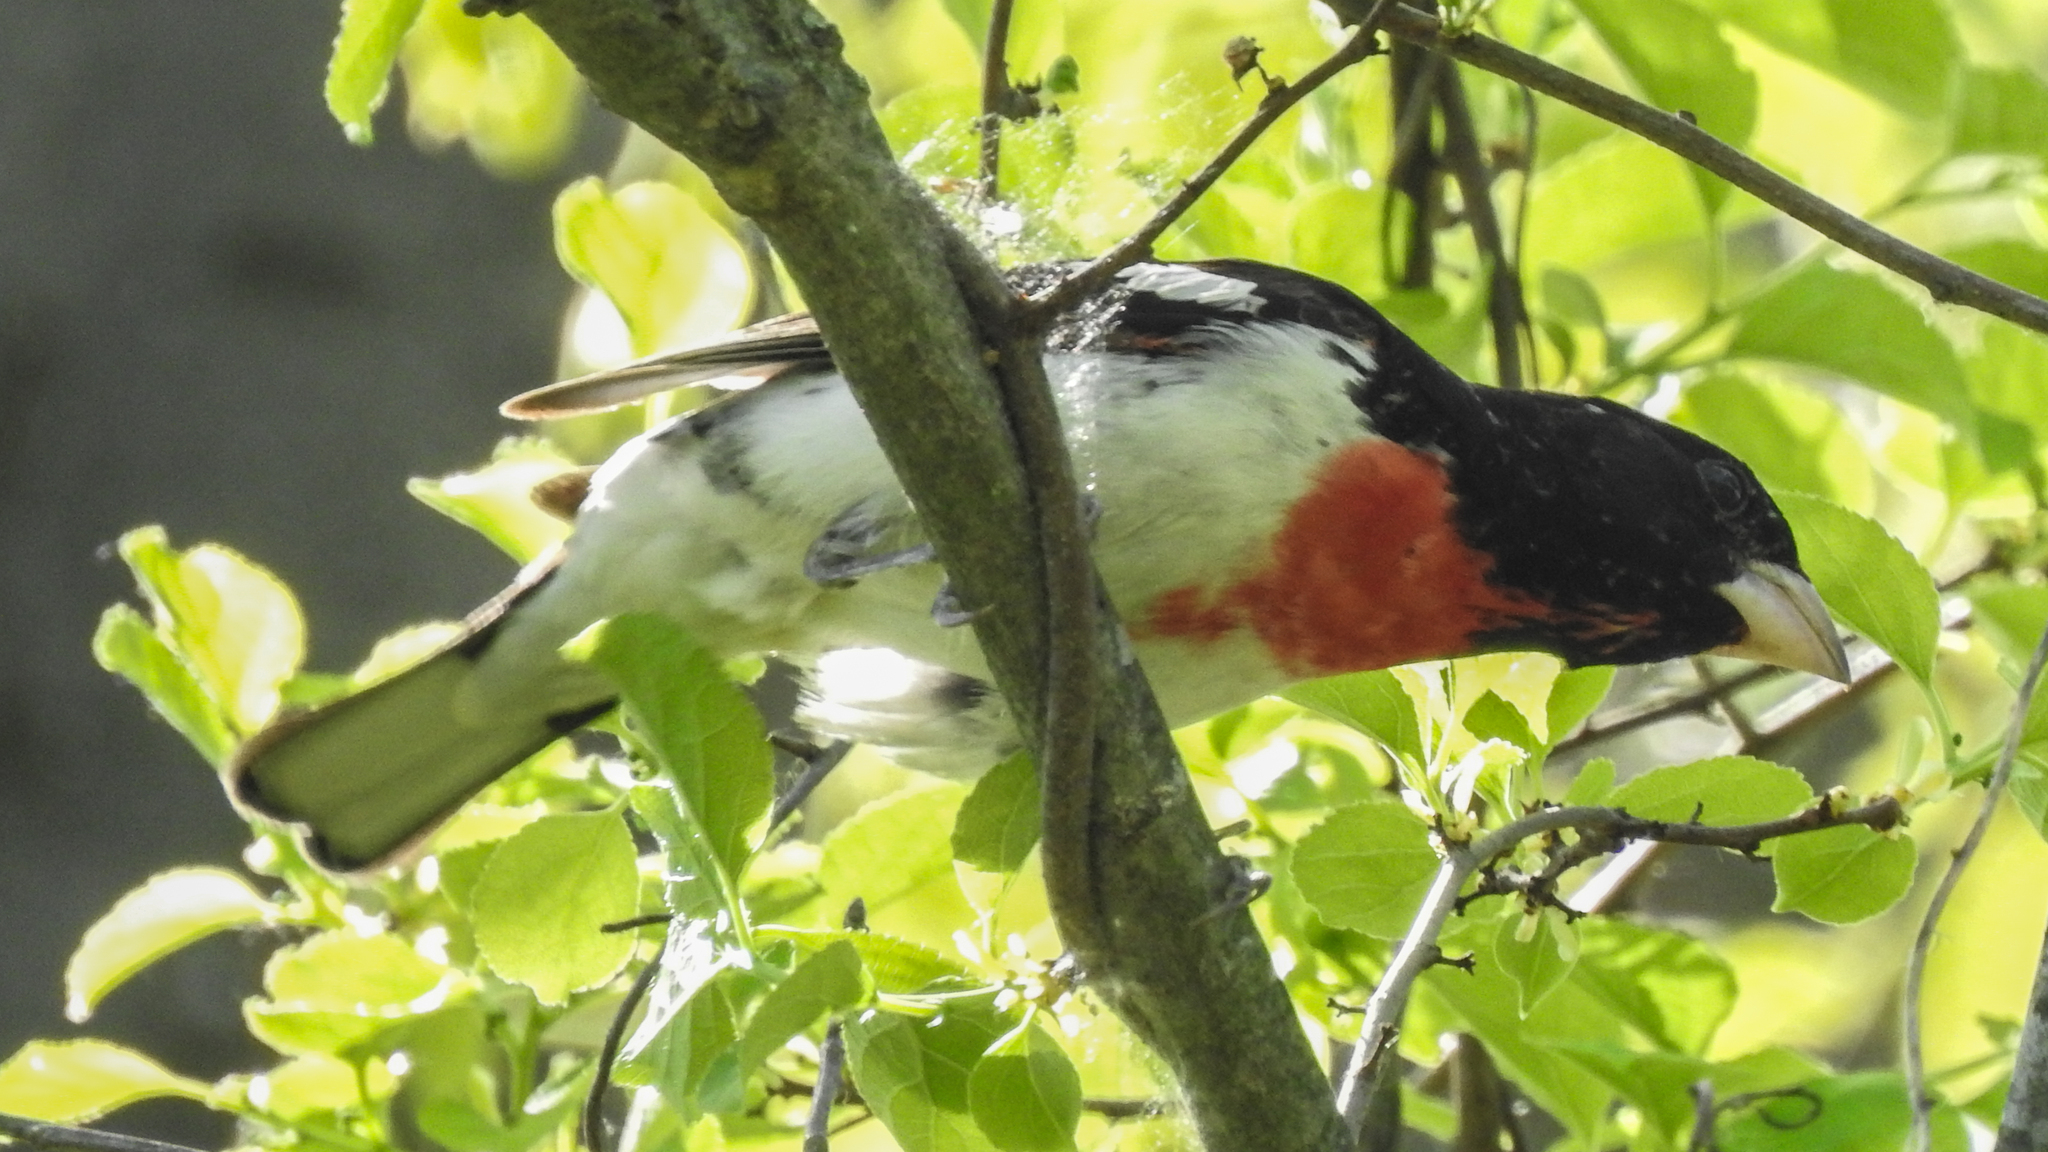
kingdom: Animalia
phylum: Chordata
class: Aves
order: Passeriformes
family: Cardinalidae
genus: Pheucticus
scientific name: Pheucticus ludovicianus
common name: Rose-breasted grosbeak
